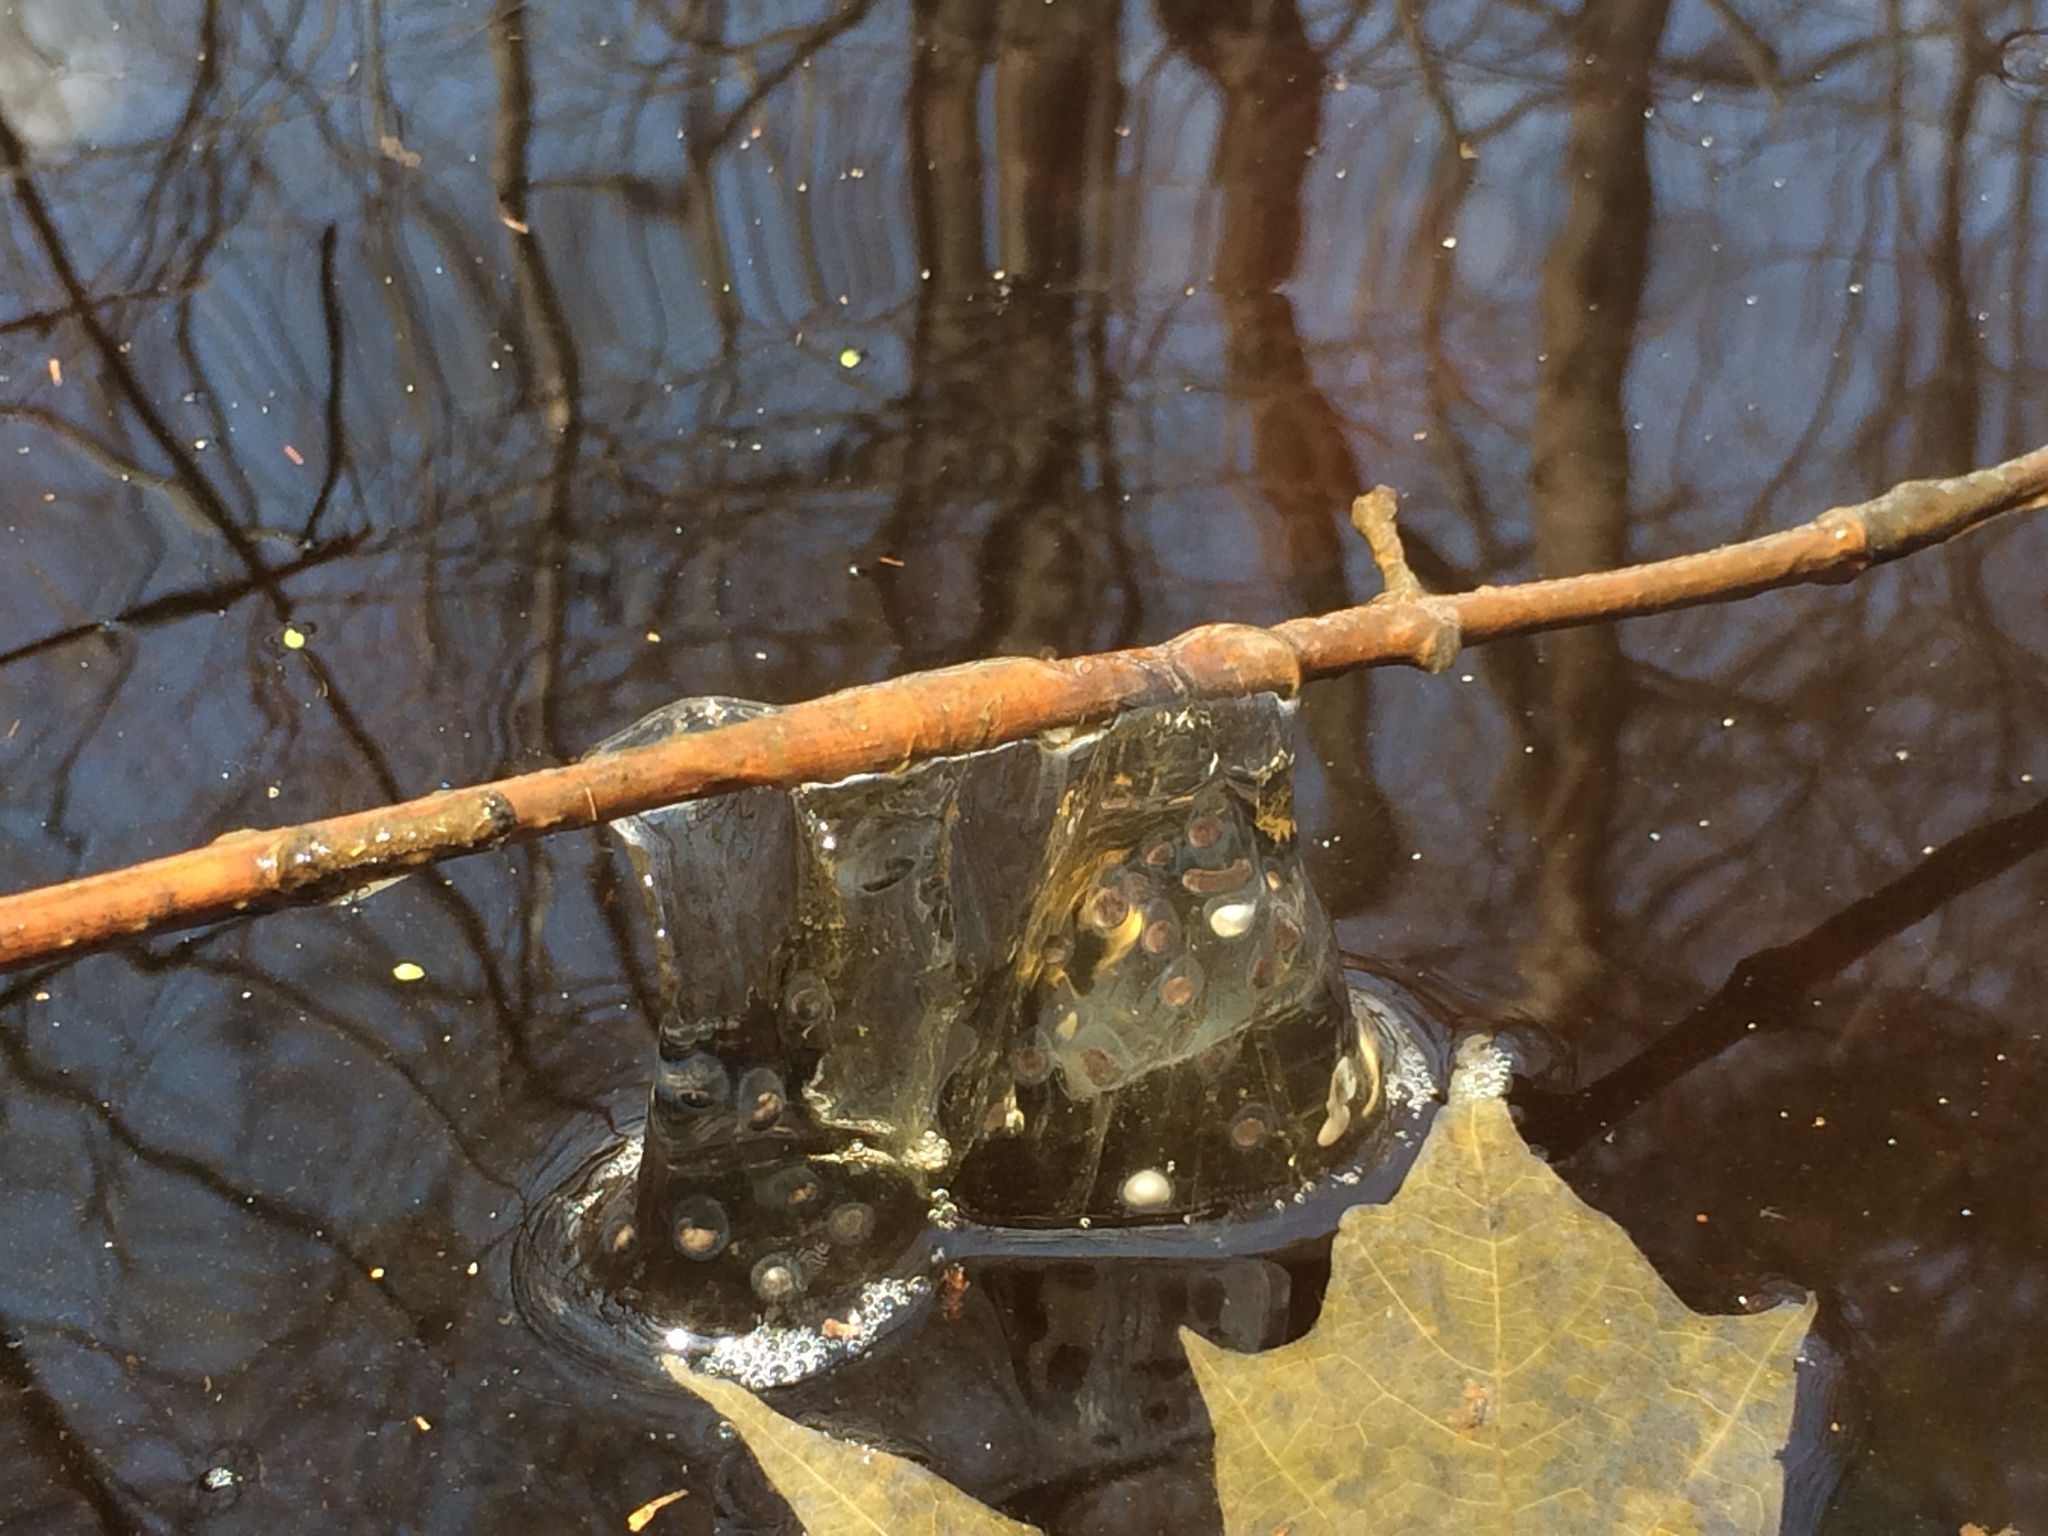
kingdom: Animalia
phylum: Chordata
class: Amphibia
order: Caudata
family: Ambystomatidae
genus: Ambystoma
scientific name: Ambystoma
